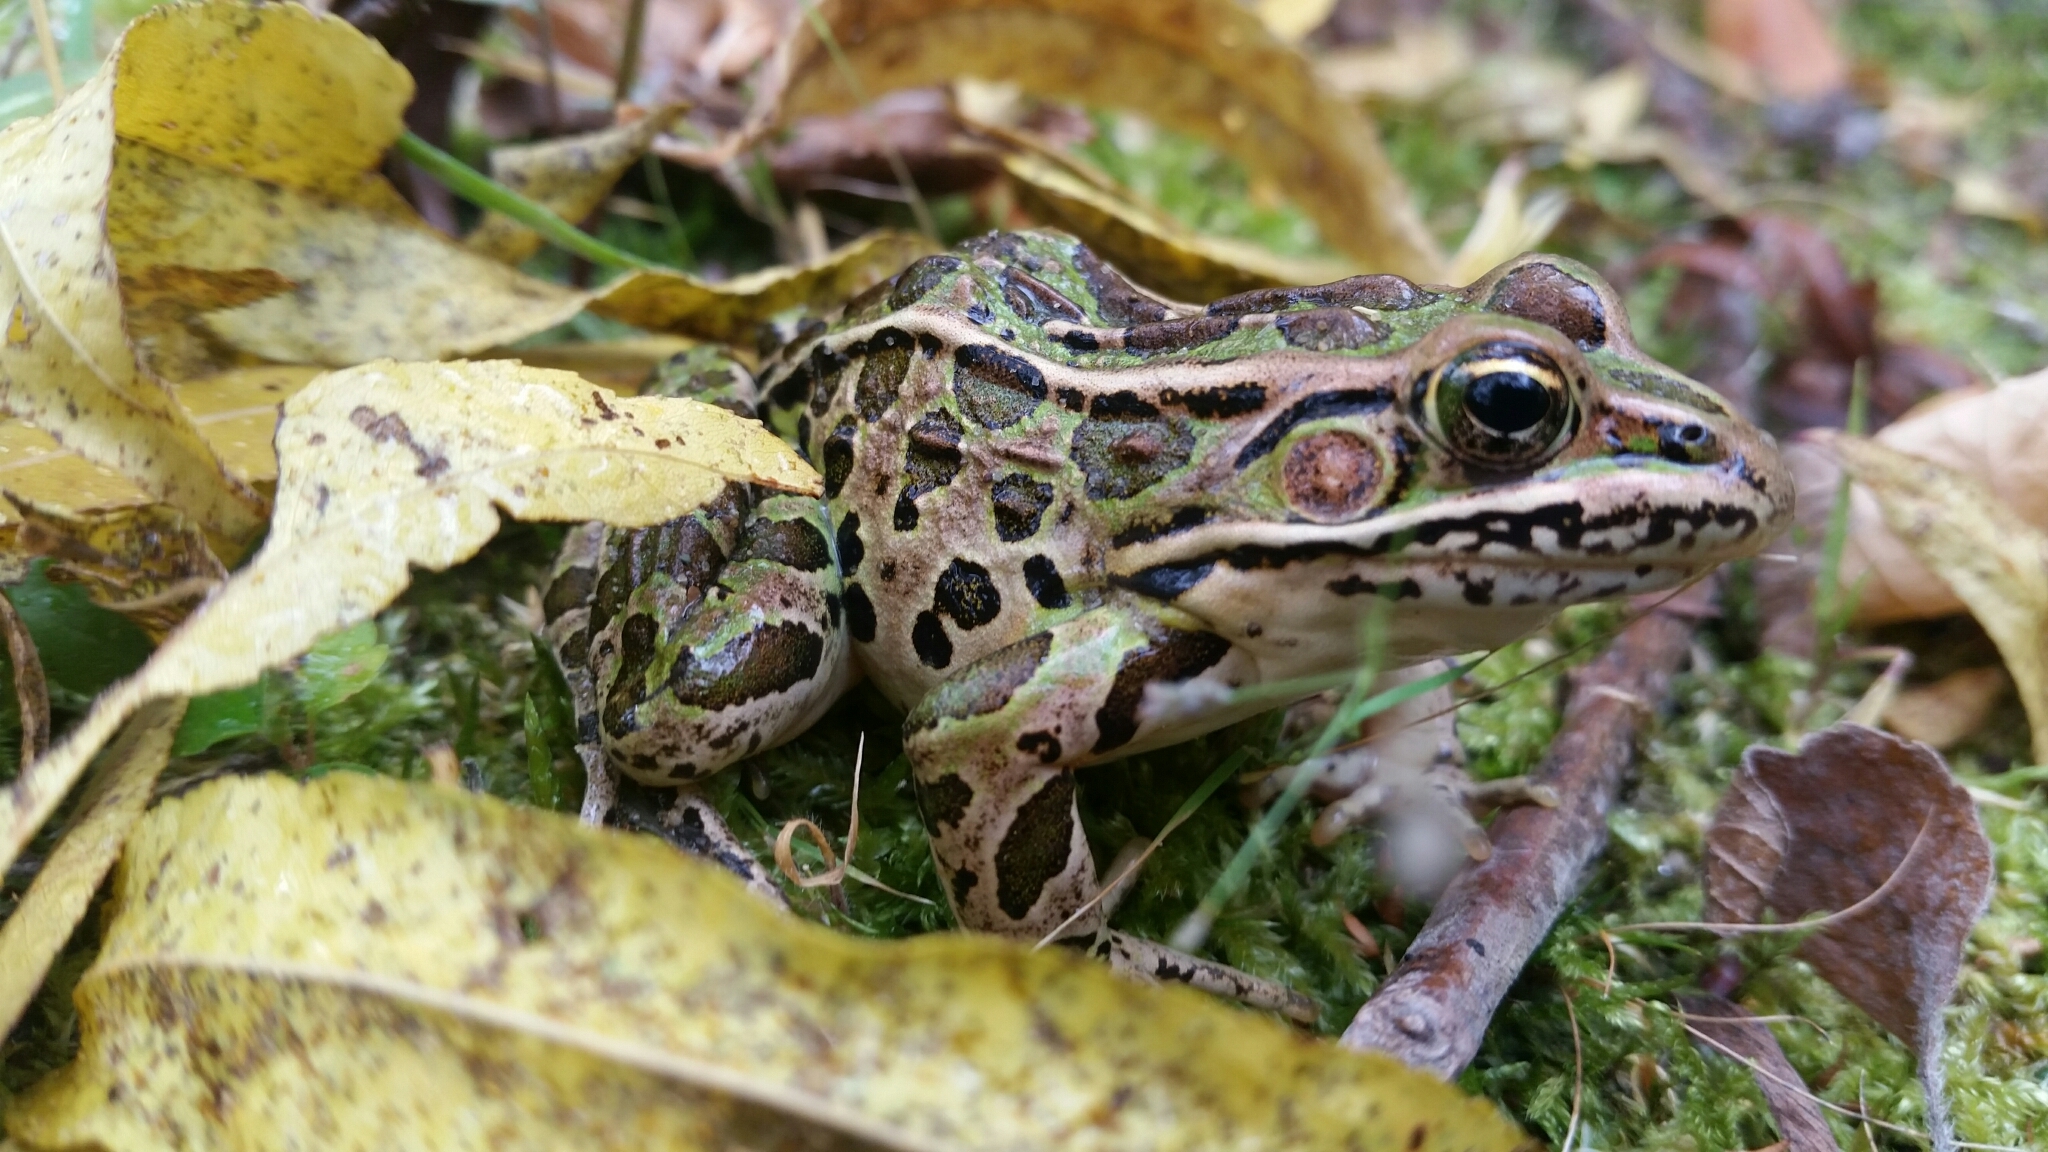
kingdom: Animalia
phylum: Chordata
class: Amphibia
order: Anura
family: Ranidae
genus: Lithobates
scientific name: Lithobates pipiens
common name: Northern leopard frog
